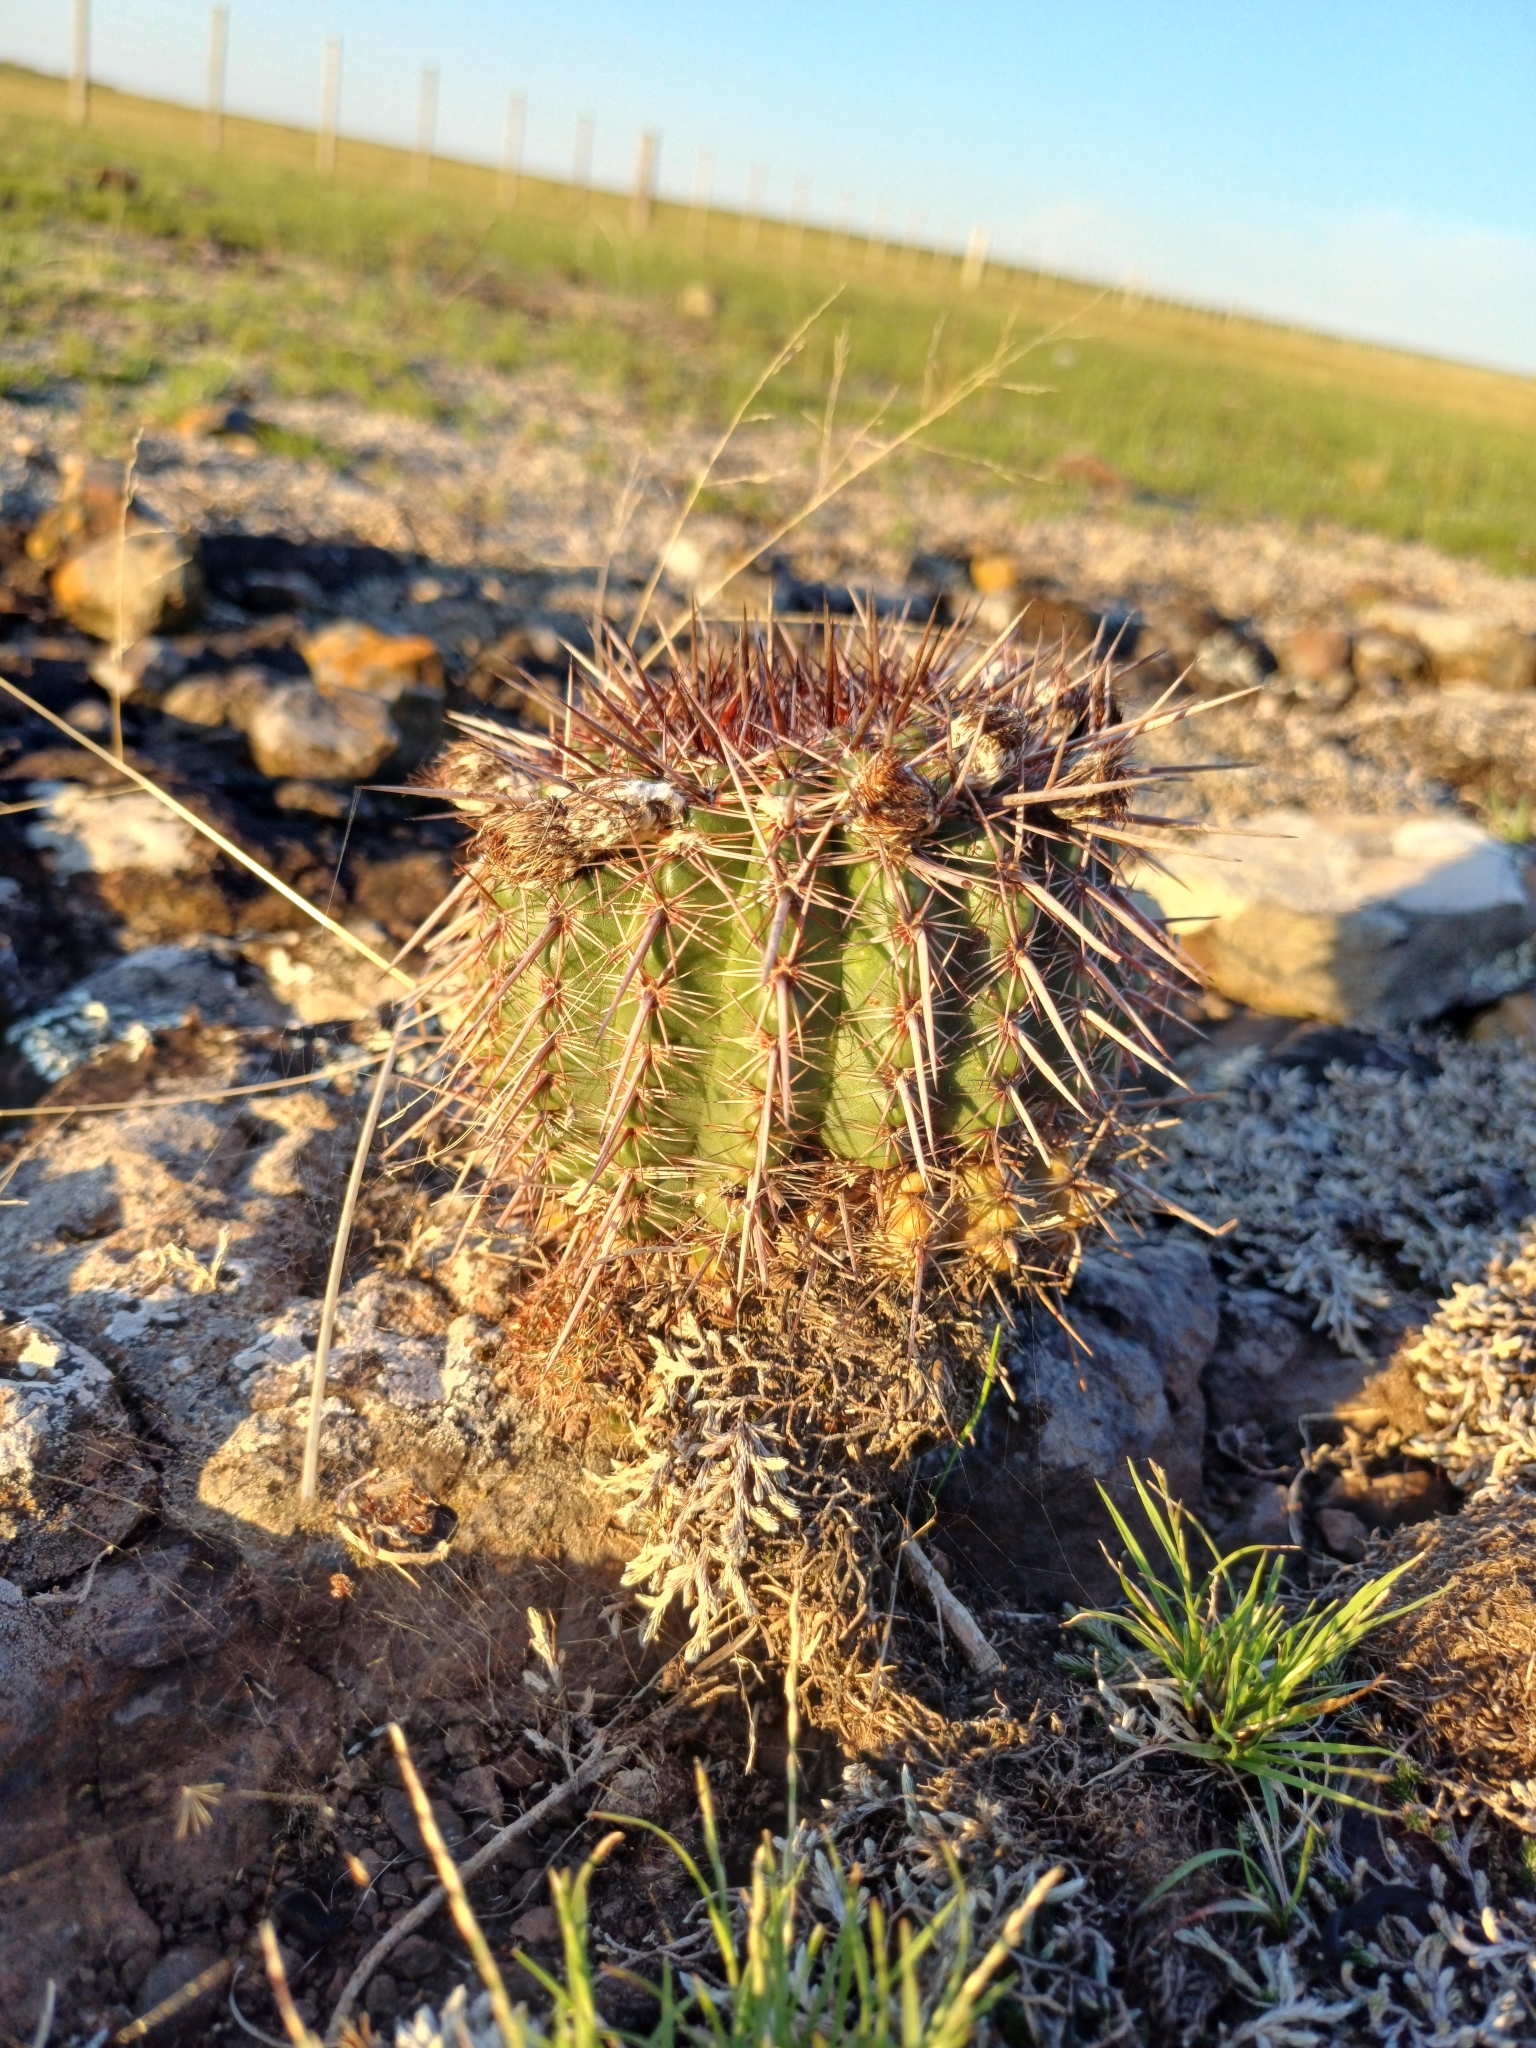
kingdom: Plantae
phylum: Tracheophyta
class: Magnoliopsida
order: Caryophyllales
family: Cactaceae
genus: Parodia
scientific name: Parodia mammulosa
